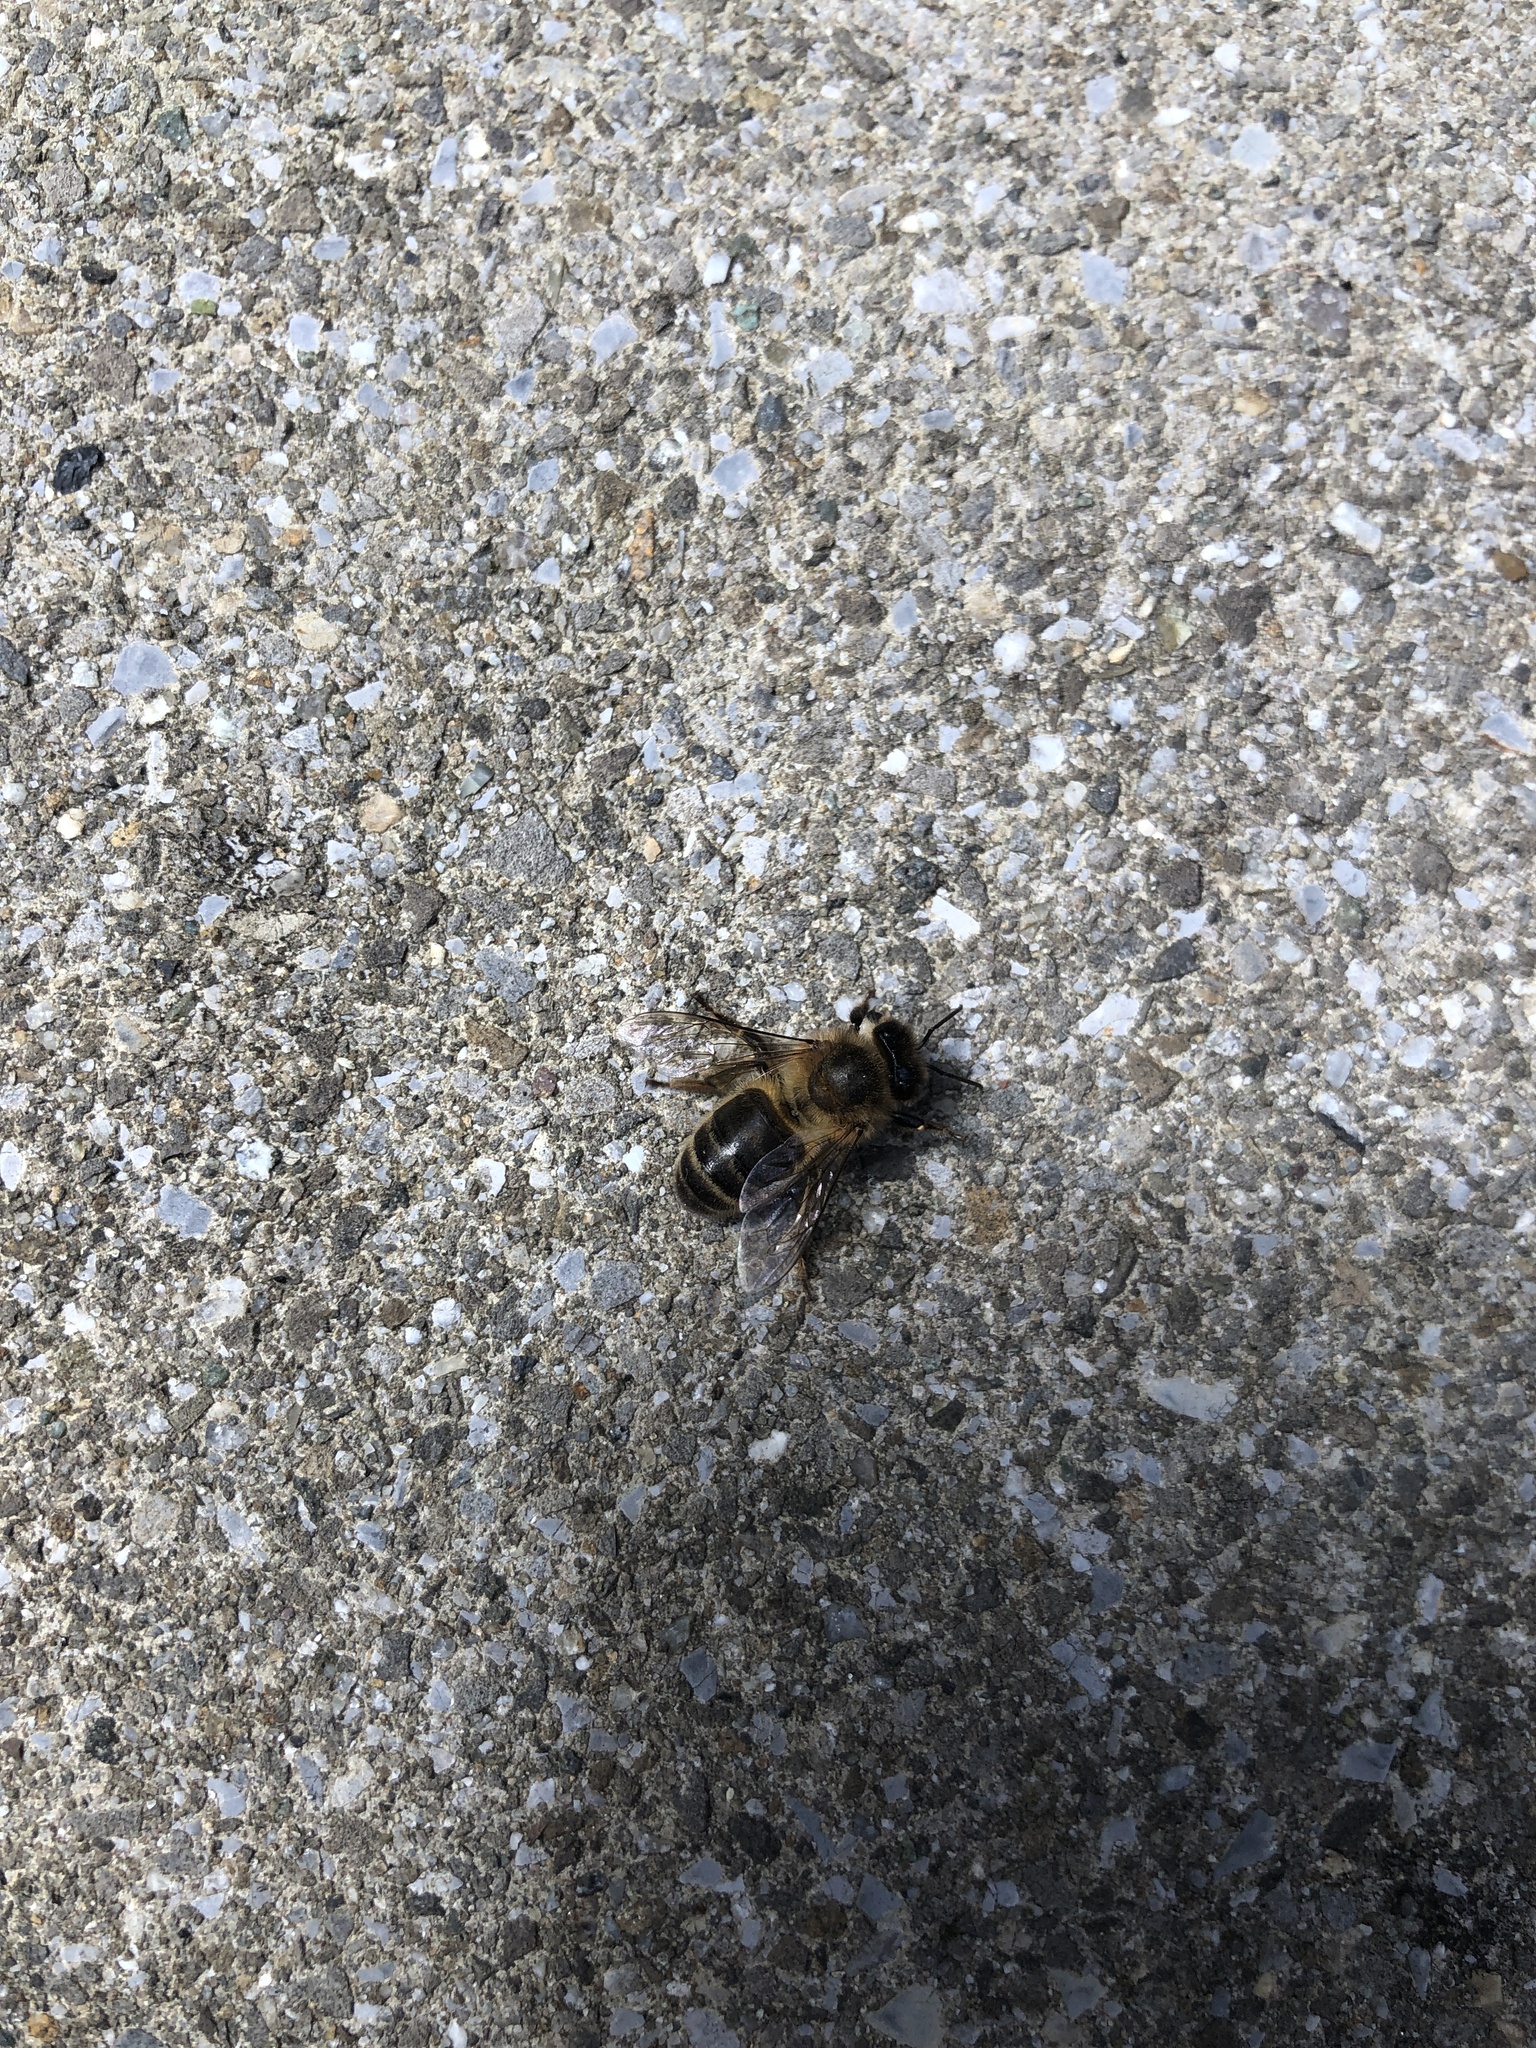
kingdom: Animalia
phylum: Arthropoda
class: Insecta
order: Hymenoptera
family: Apidae
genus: Apis
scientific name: Apis mellifera
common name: Honey bee
